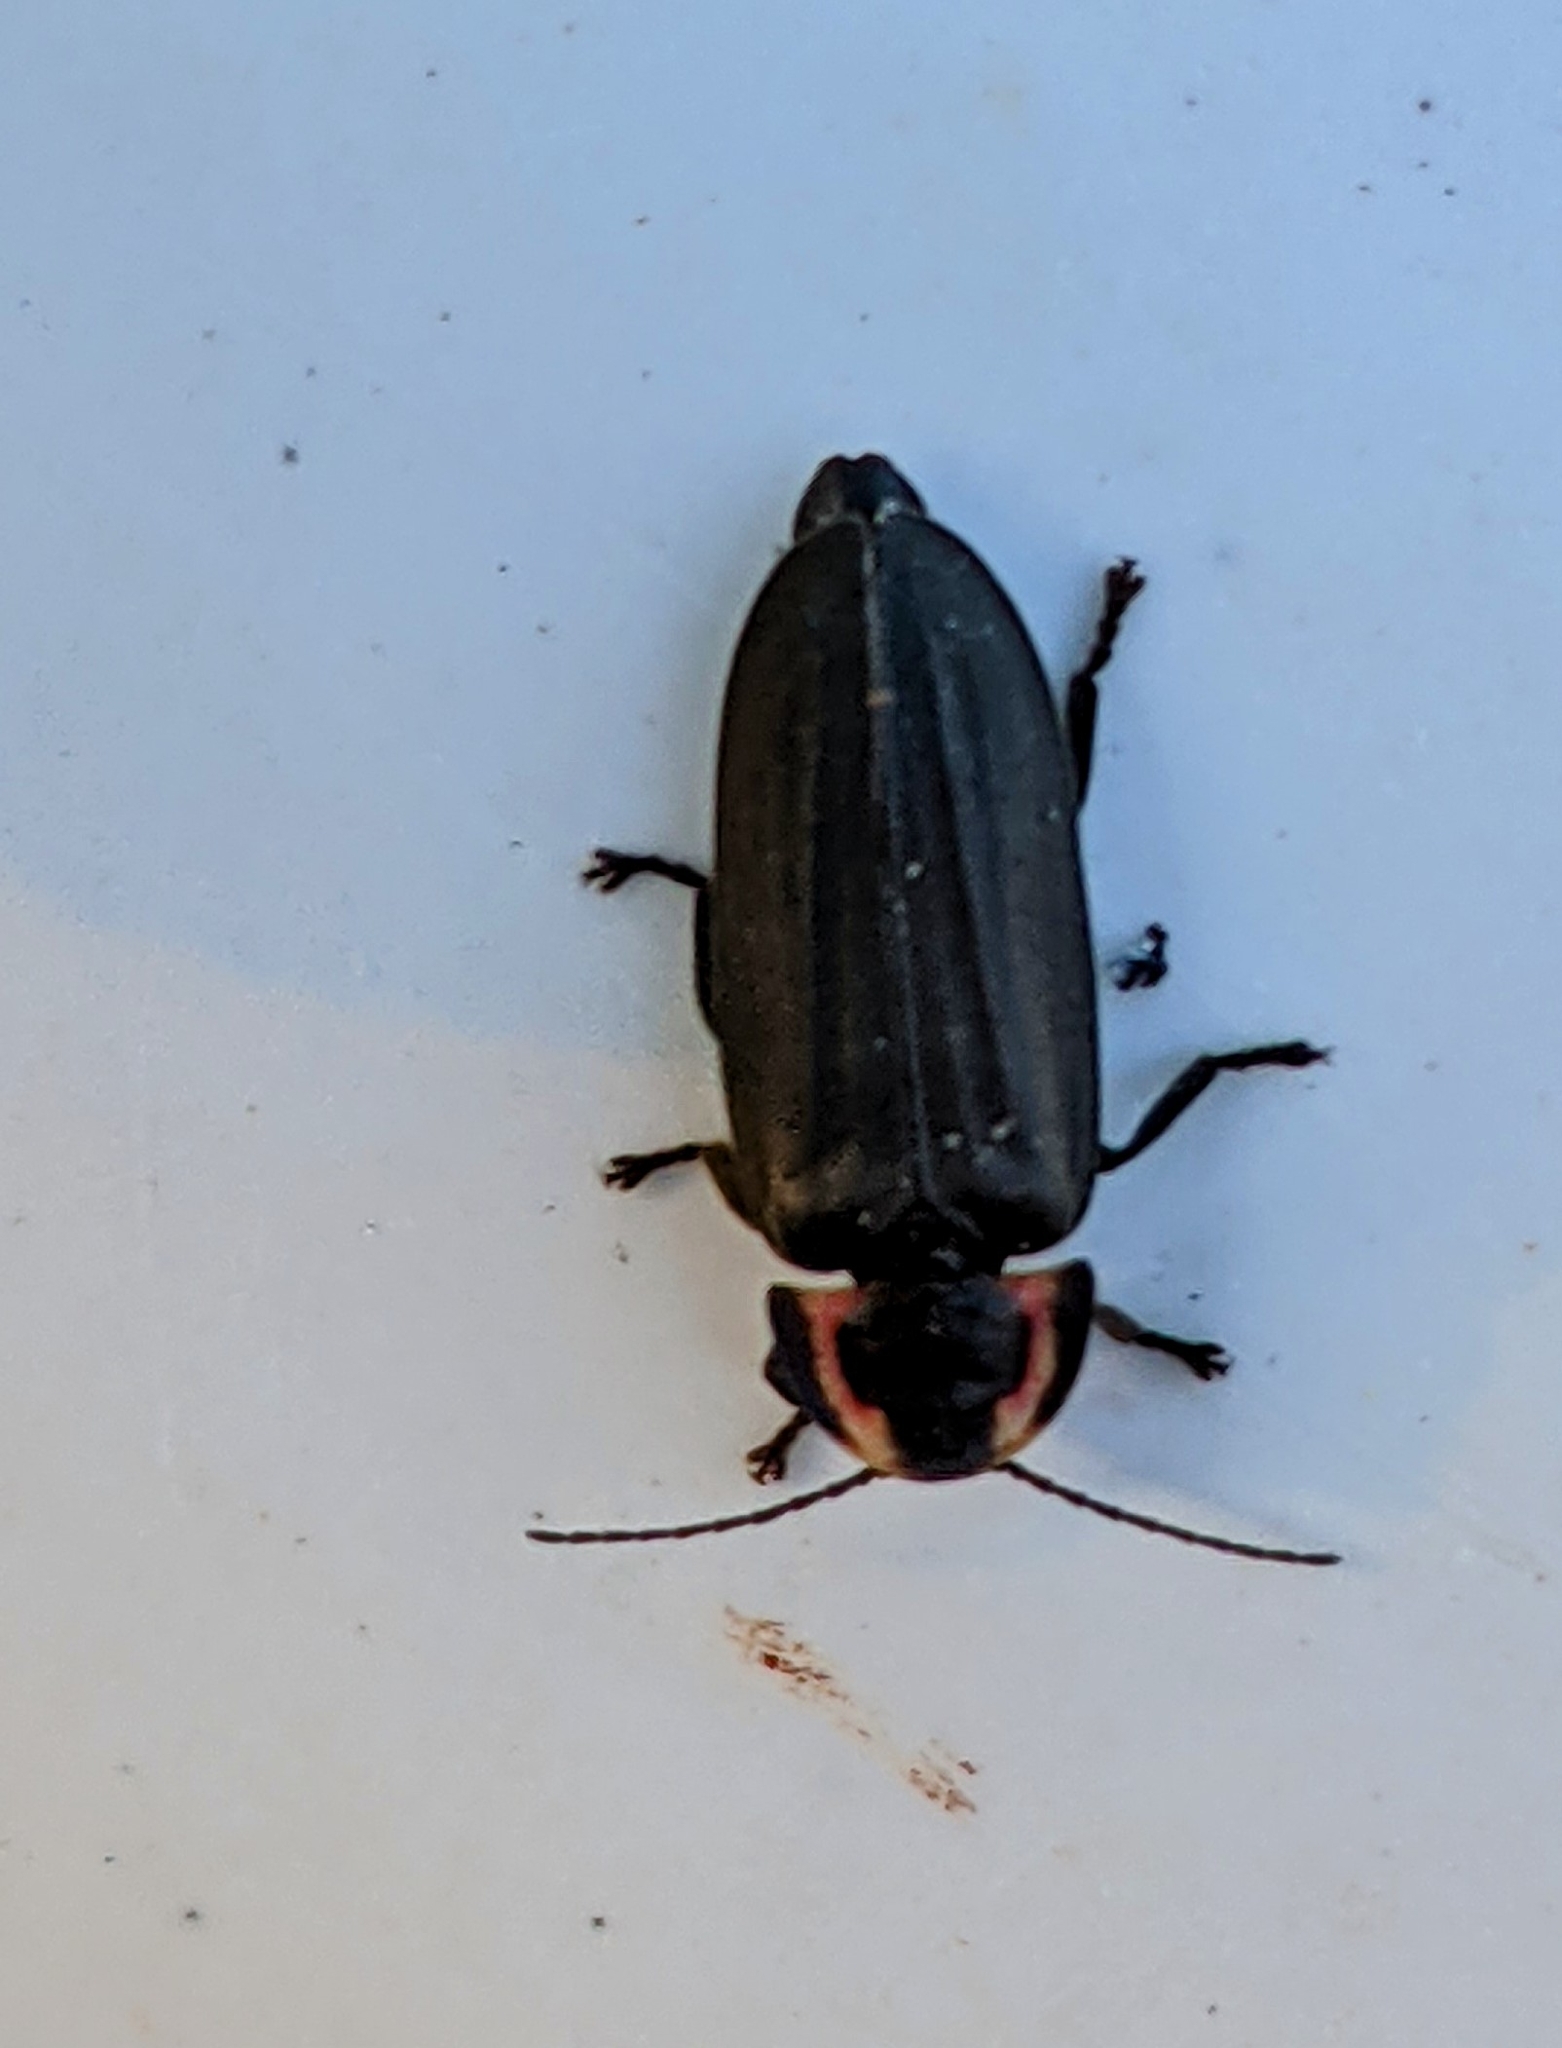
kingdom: Animalia
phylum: Arthropoda
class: Insecta
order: Coleoptera
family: Lampyridae
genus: Photinus
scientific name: Photinus corrusca
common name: Winter firefly
